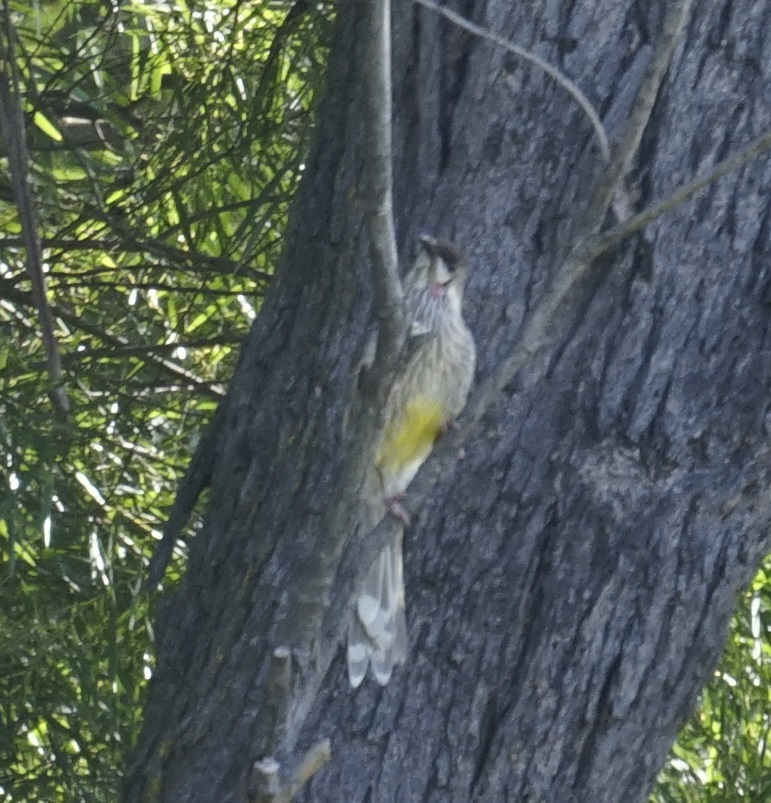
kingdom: Animalia
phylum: Chordata
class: Aves
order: Passeriformes
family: Meliphagidae
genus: Anthochaera
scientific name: Anthochaera carunculata
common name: Red wattlebird
